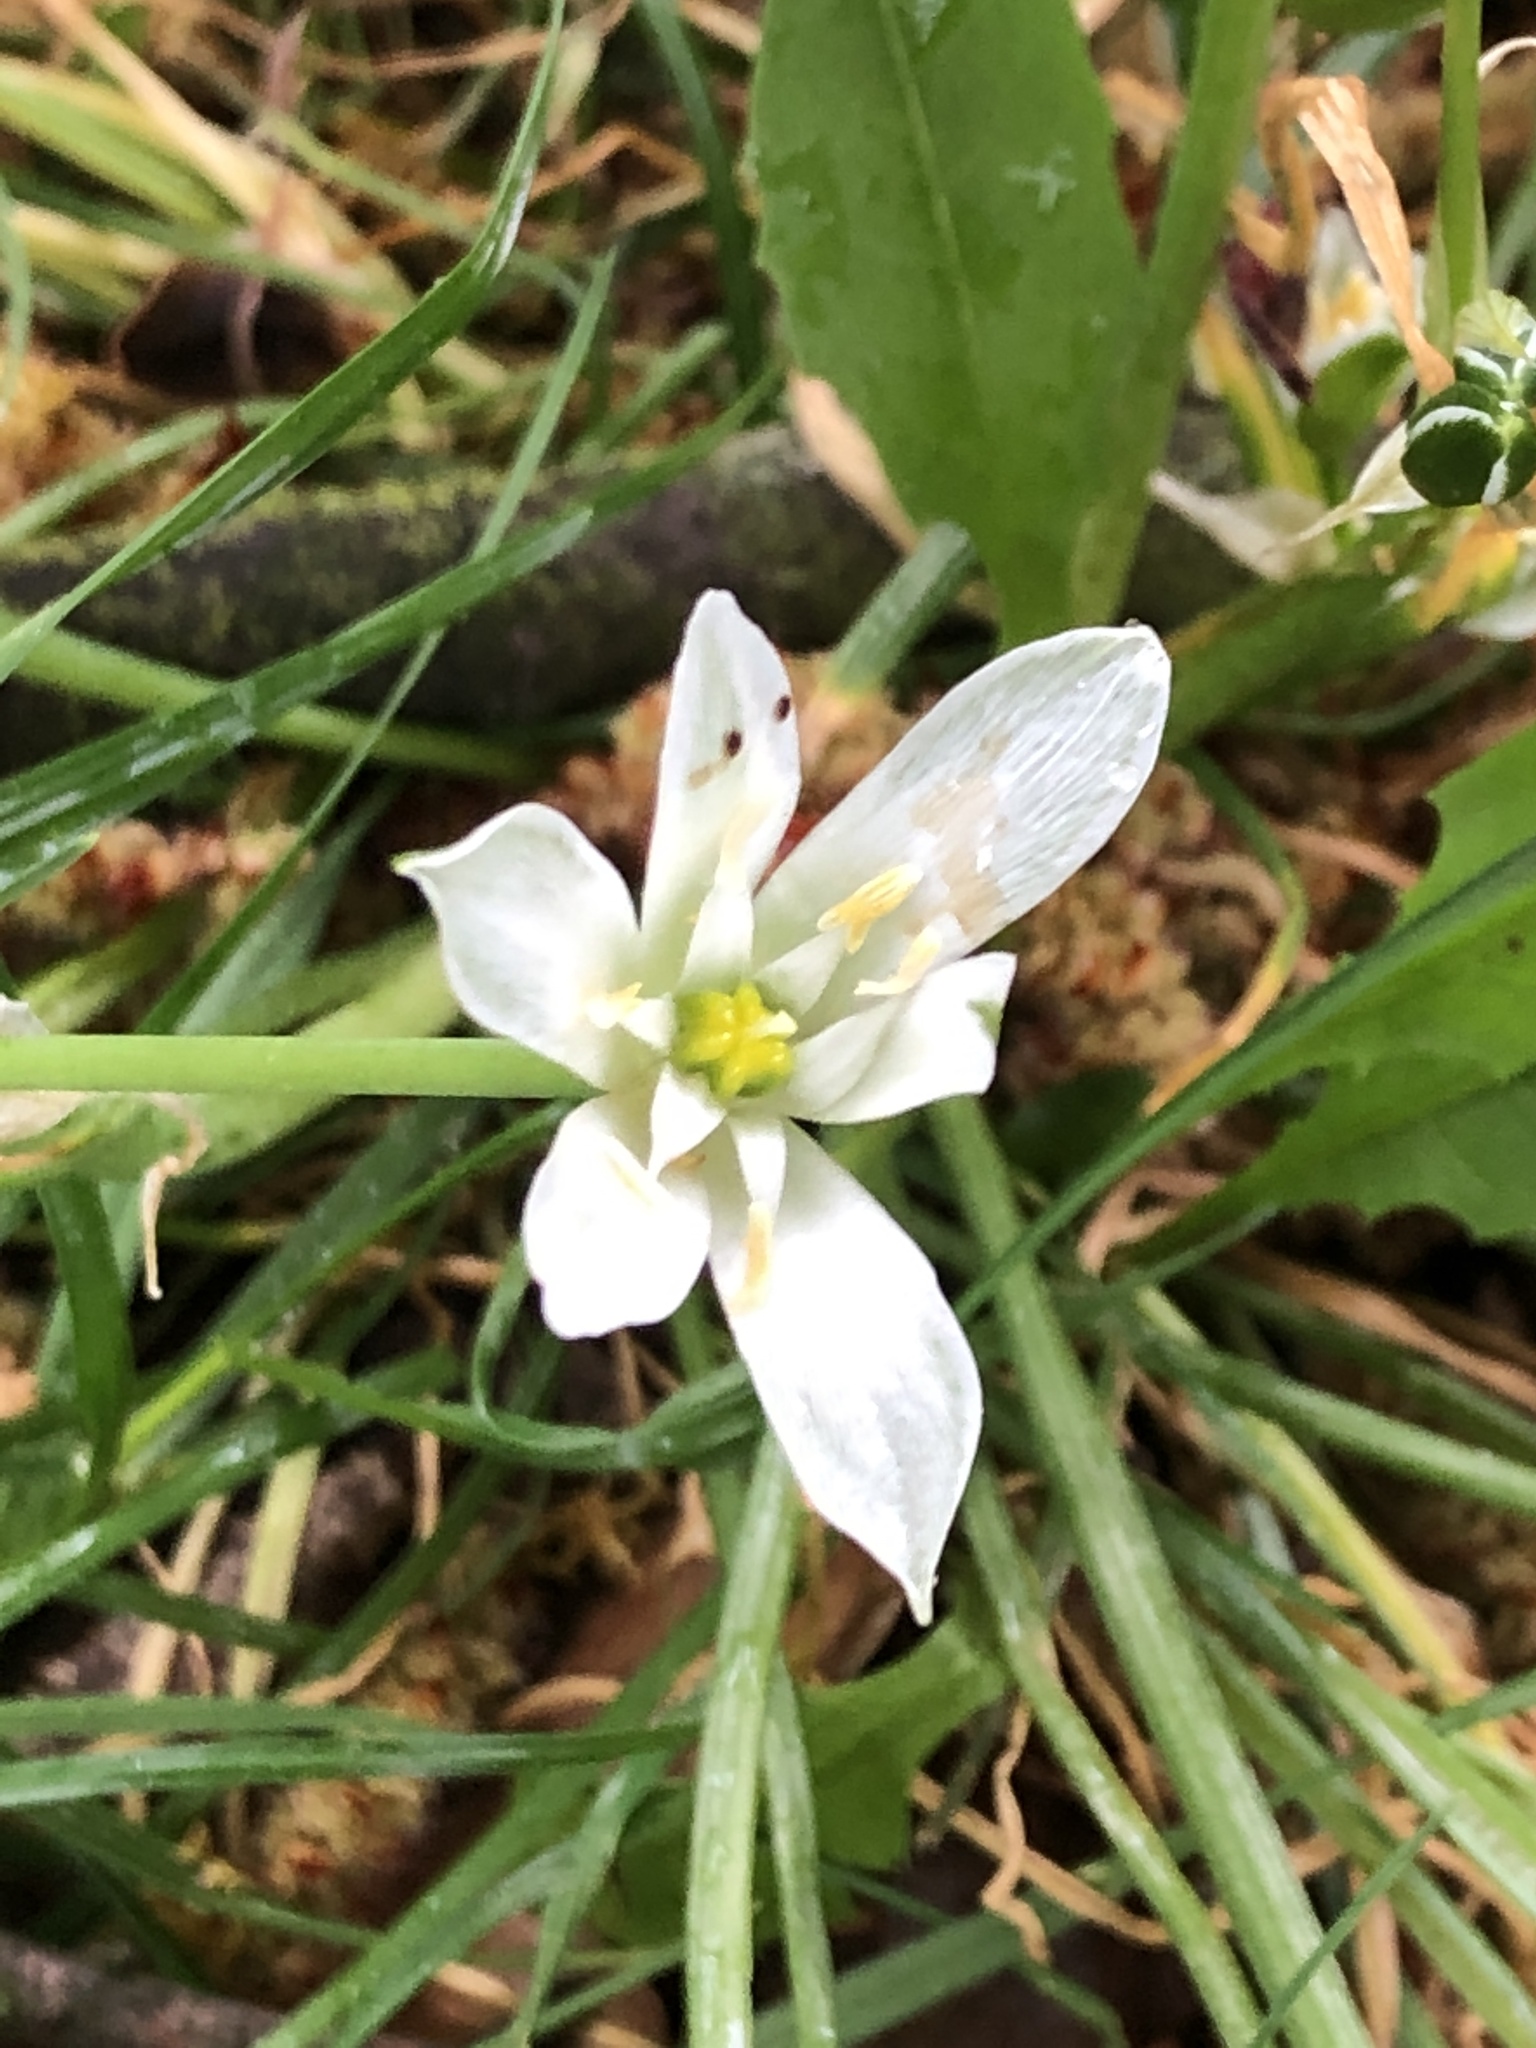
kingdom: Plantae
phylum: Tracheophyta
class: Liliopsida
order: Asparagales
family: Asparagaceae
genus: Ornithogalum
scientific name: Ornithogalum umbellatum
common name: Garden star-of-bethlehem
